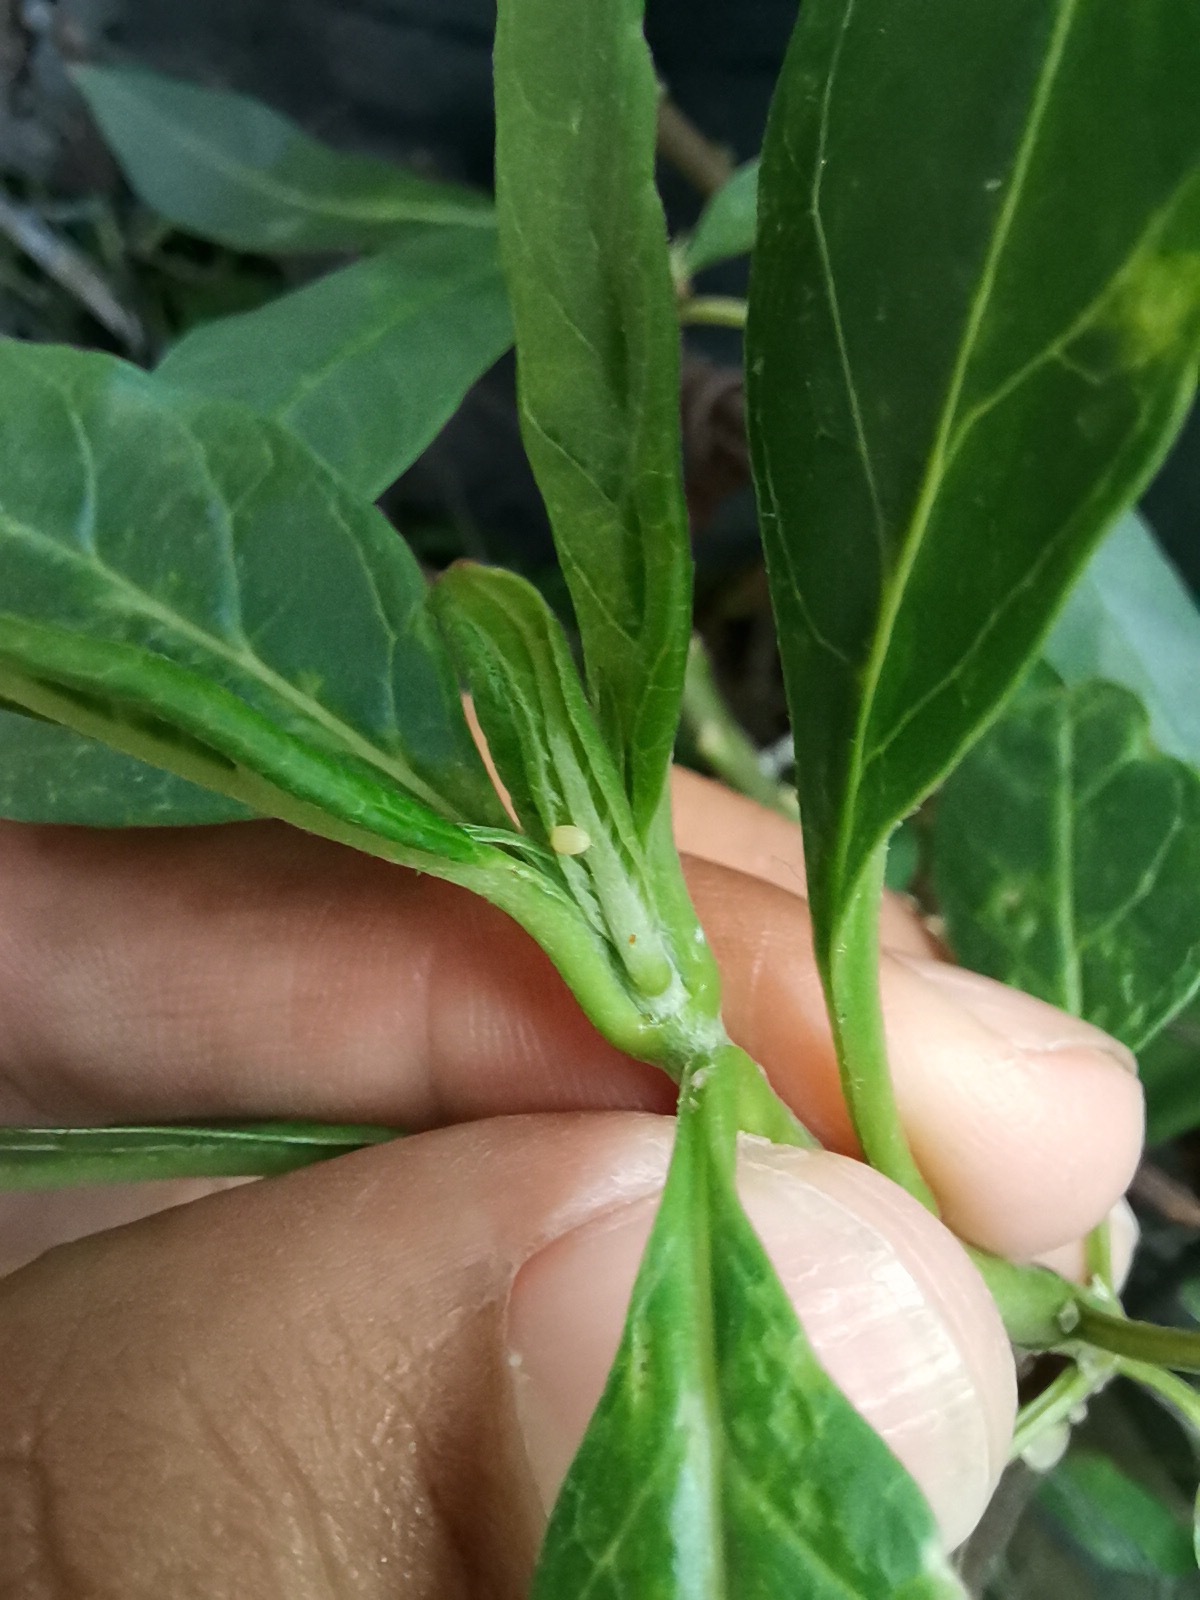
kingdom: Animalia
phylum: Arthropoda
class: Insecta
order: Lepidoptera
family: Nymphalidae
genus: Danaus
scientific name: Danaus plexippus
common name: Monarch
